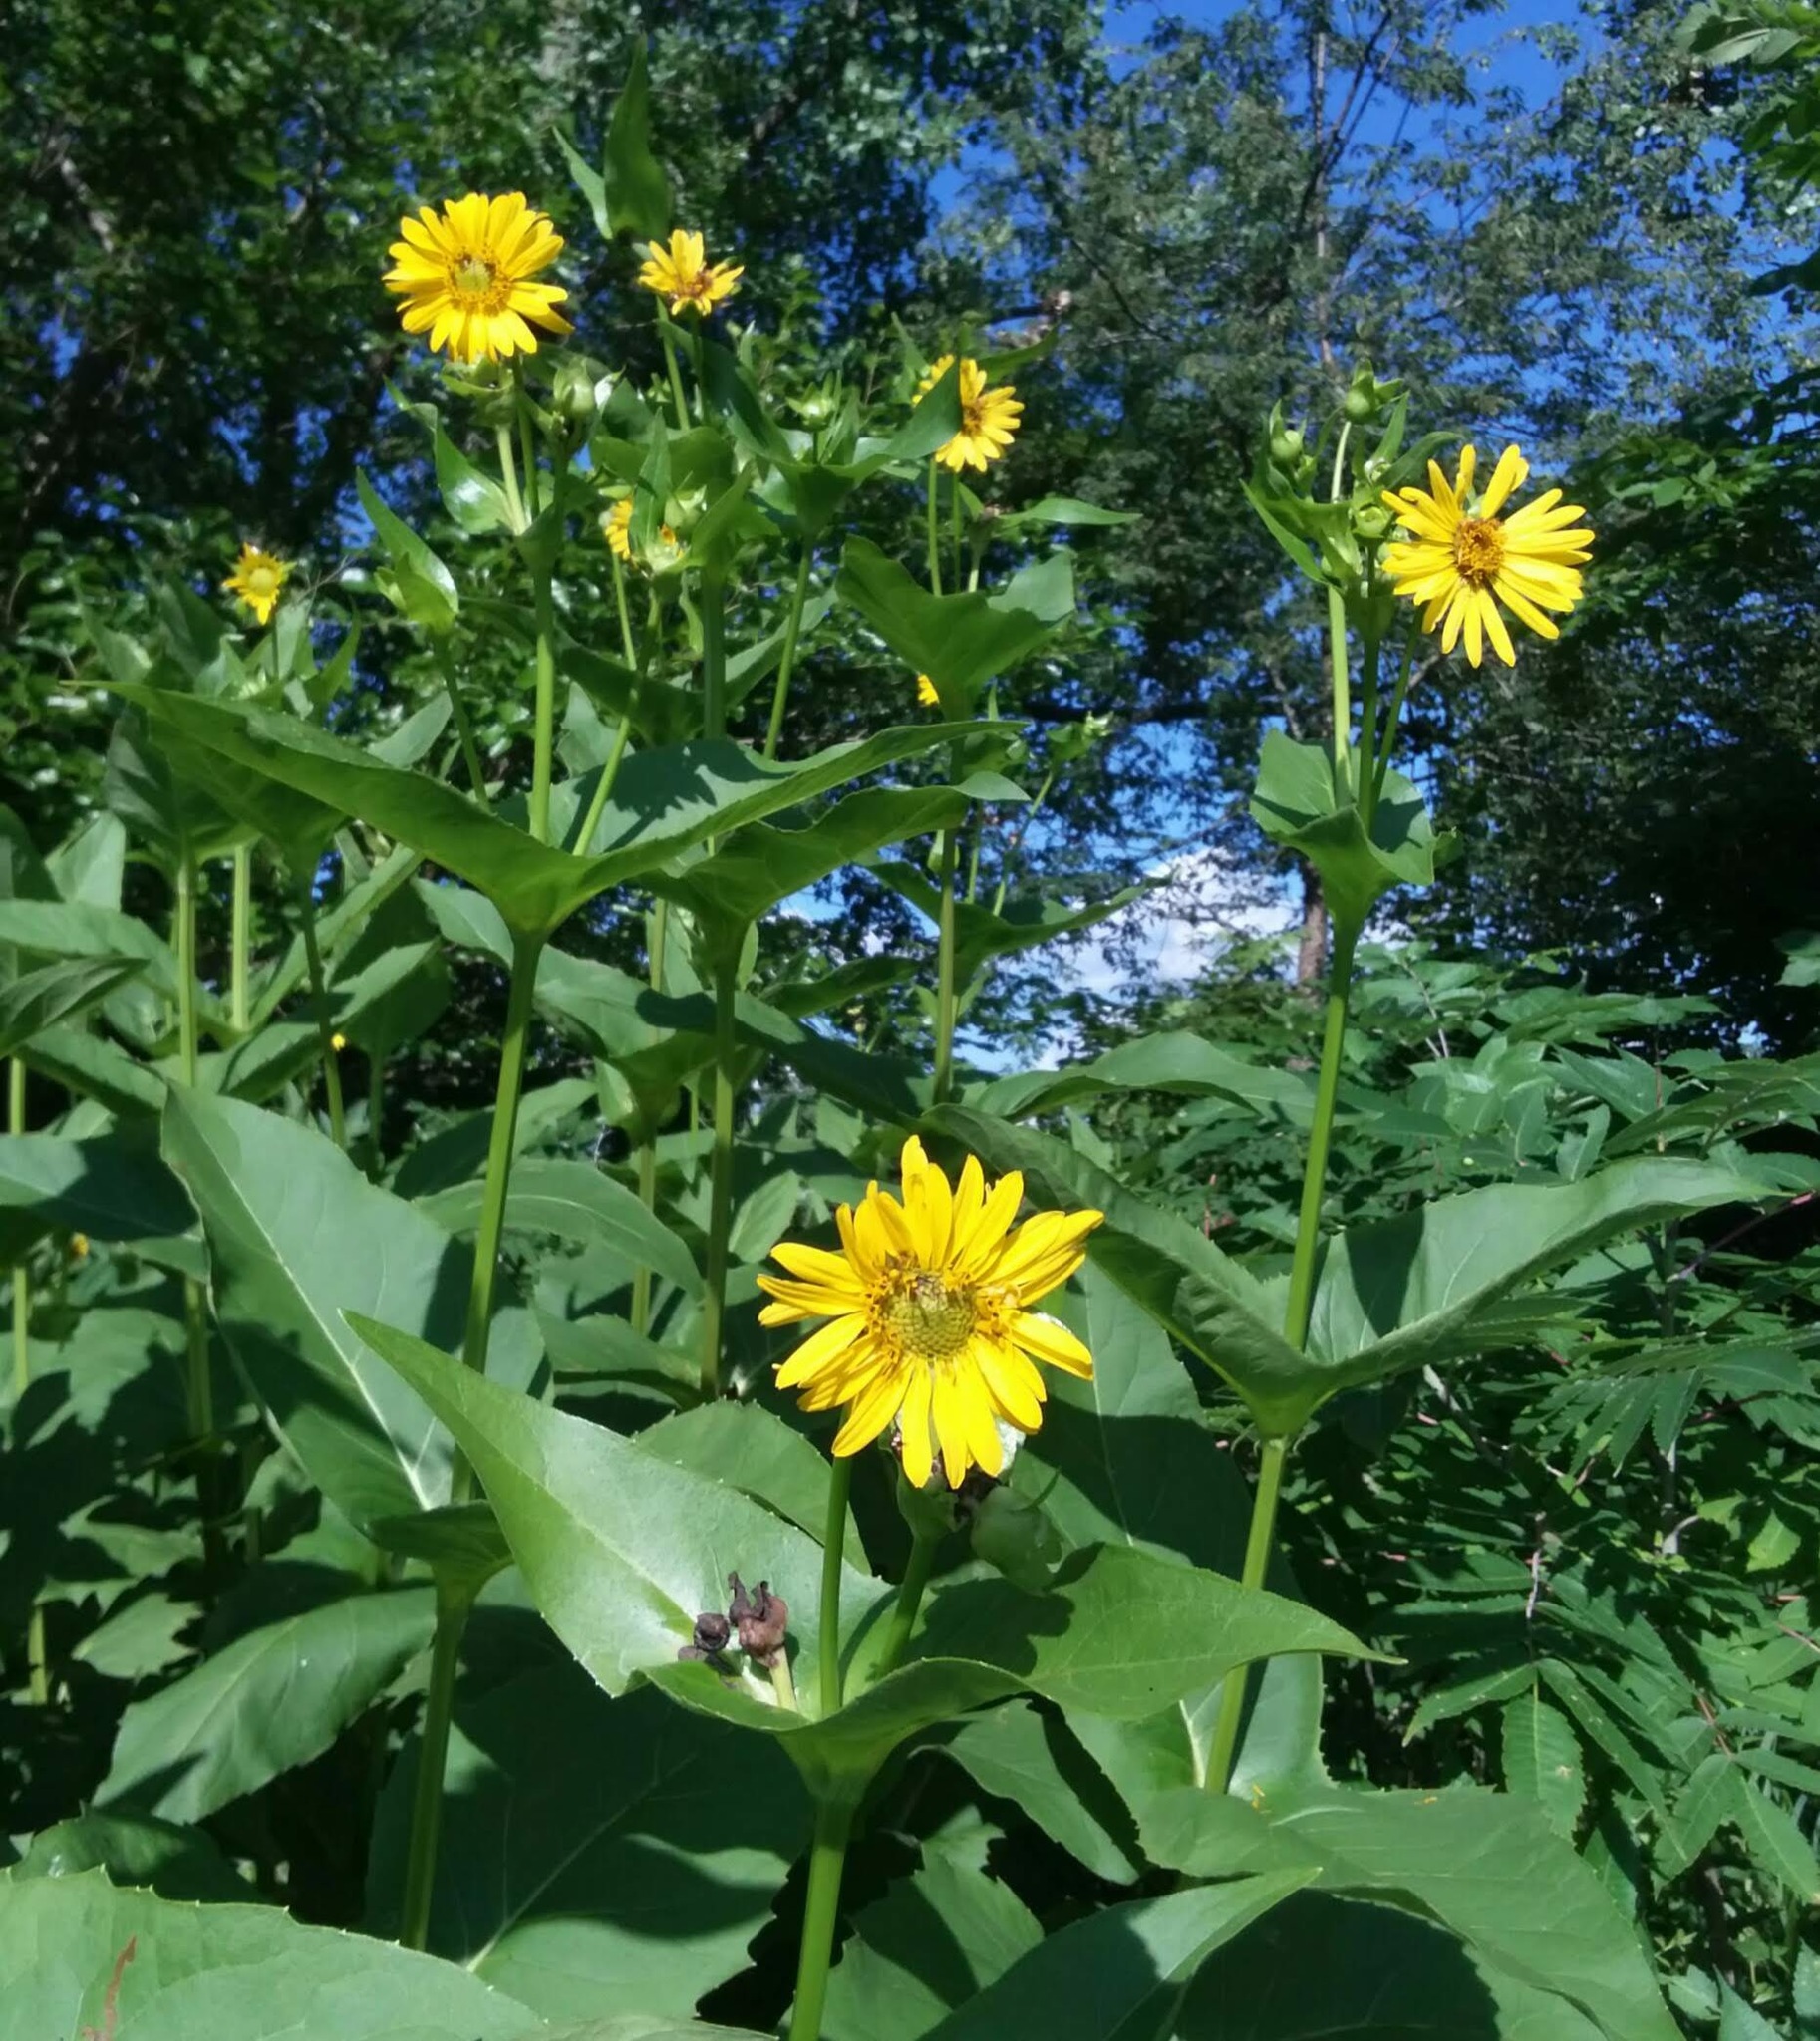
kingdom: Plantae
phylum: Tracheophyta
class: Magnoliopsida
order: Asterales
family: Asteraceae
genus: Silphium
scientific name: Silphium perfoliatum
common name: Cup-plant
